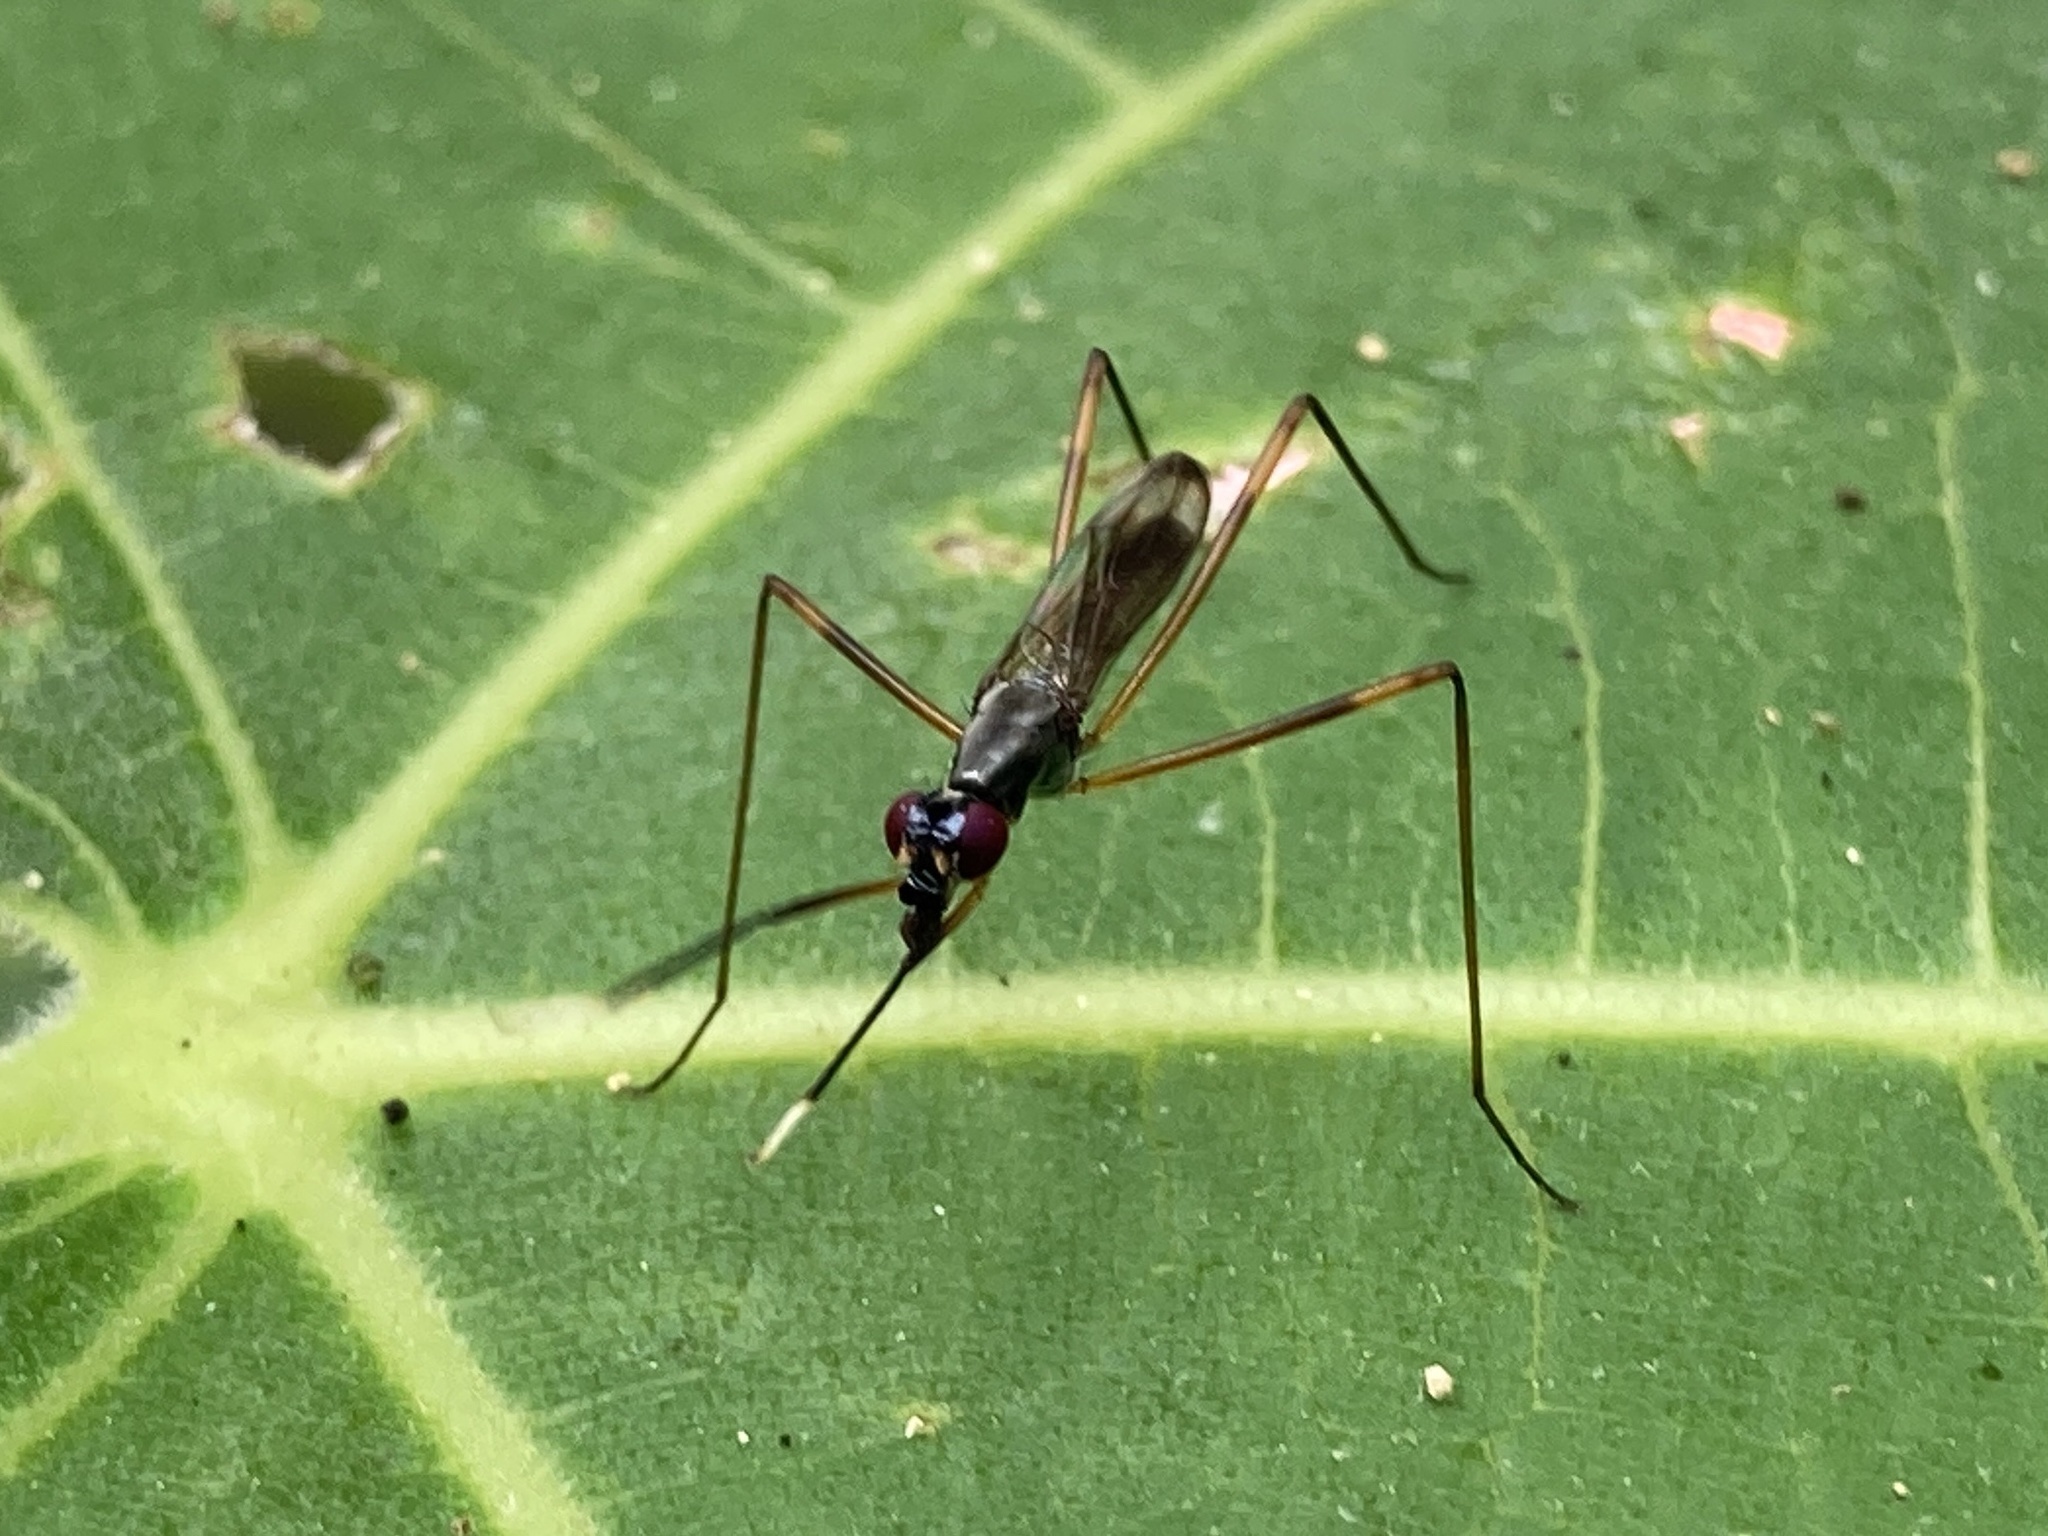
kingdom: Animalia
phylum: Arthropoda
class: Insecta
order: Diptera
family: Micropezidae
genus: Rainieria
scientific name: Rainieria antennaepes
